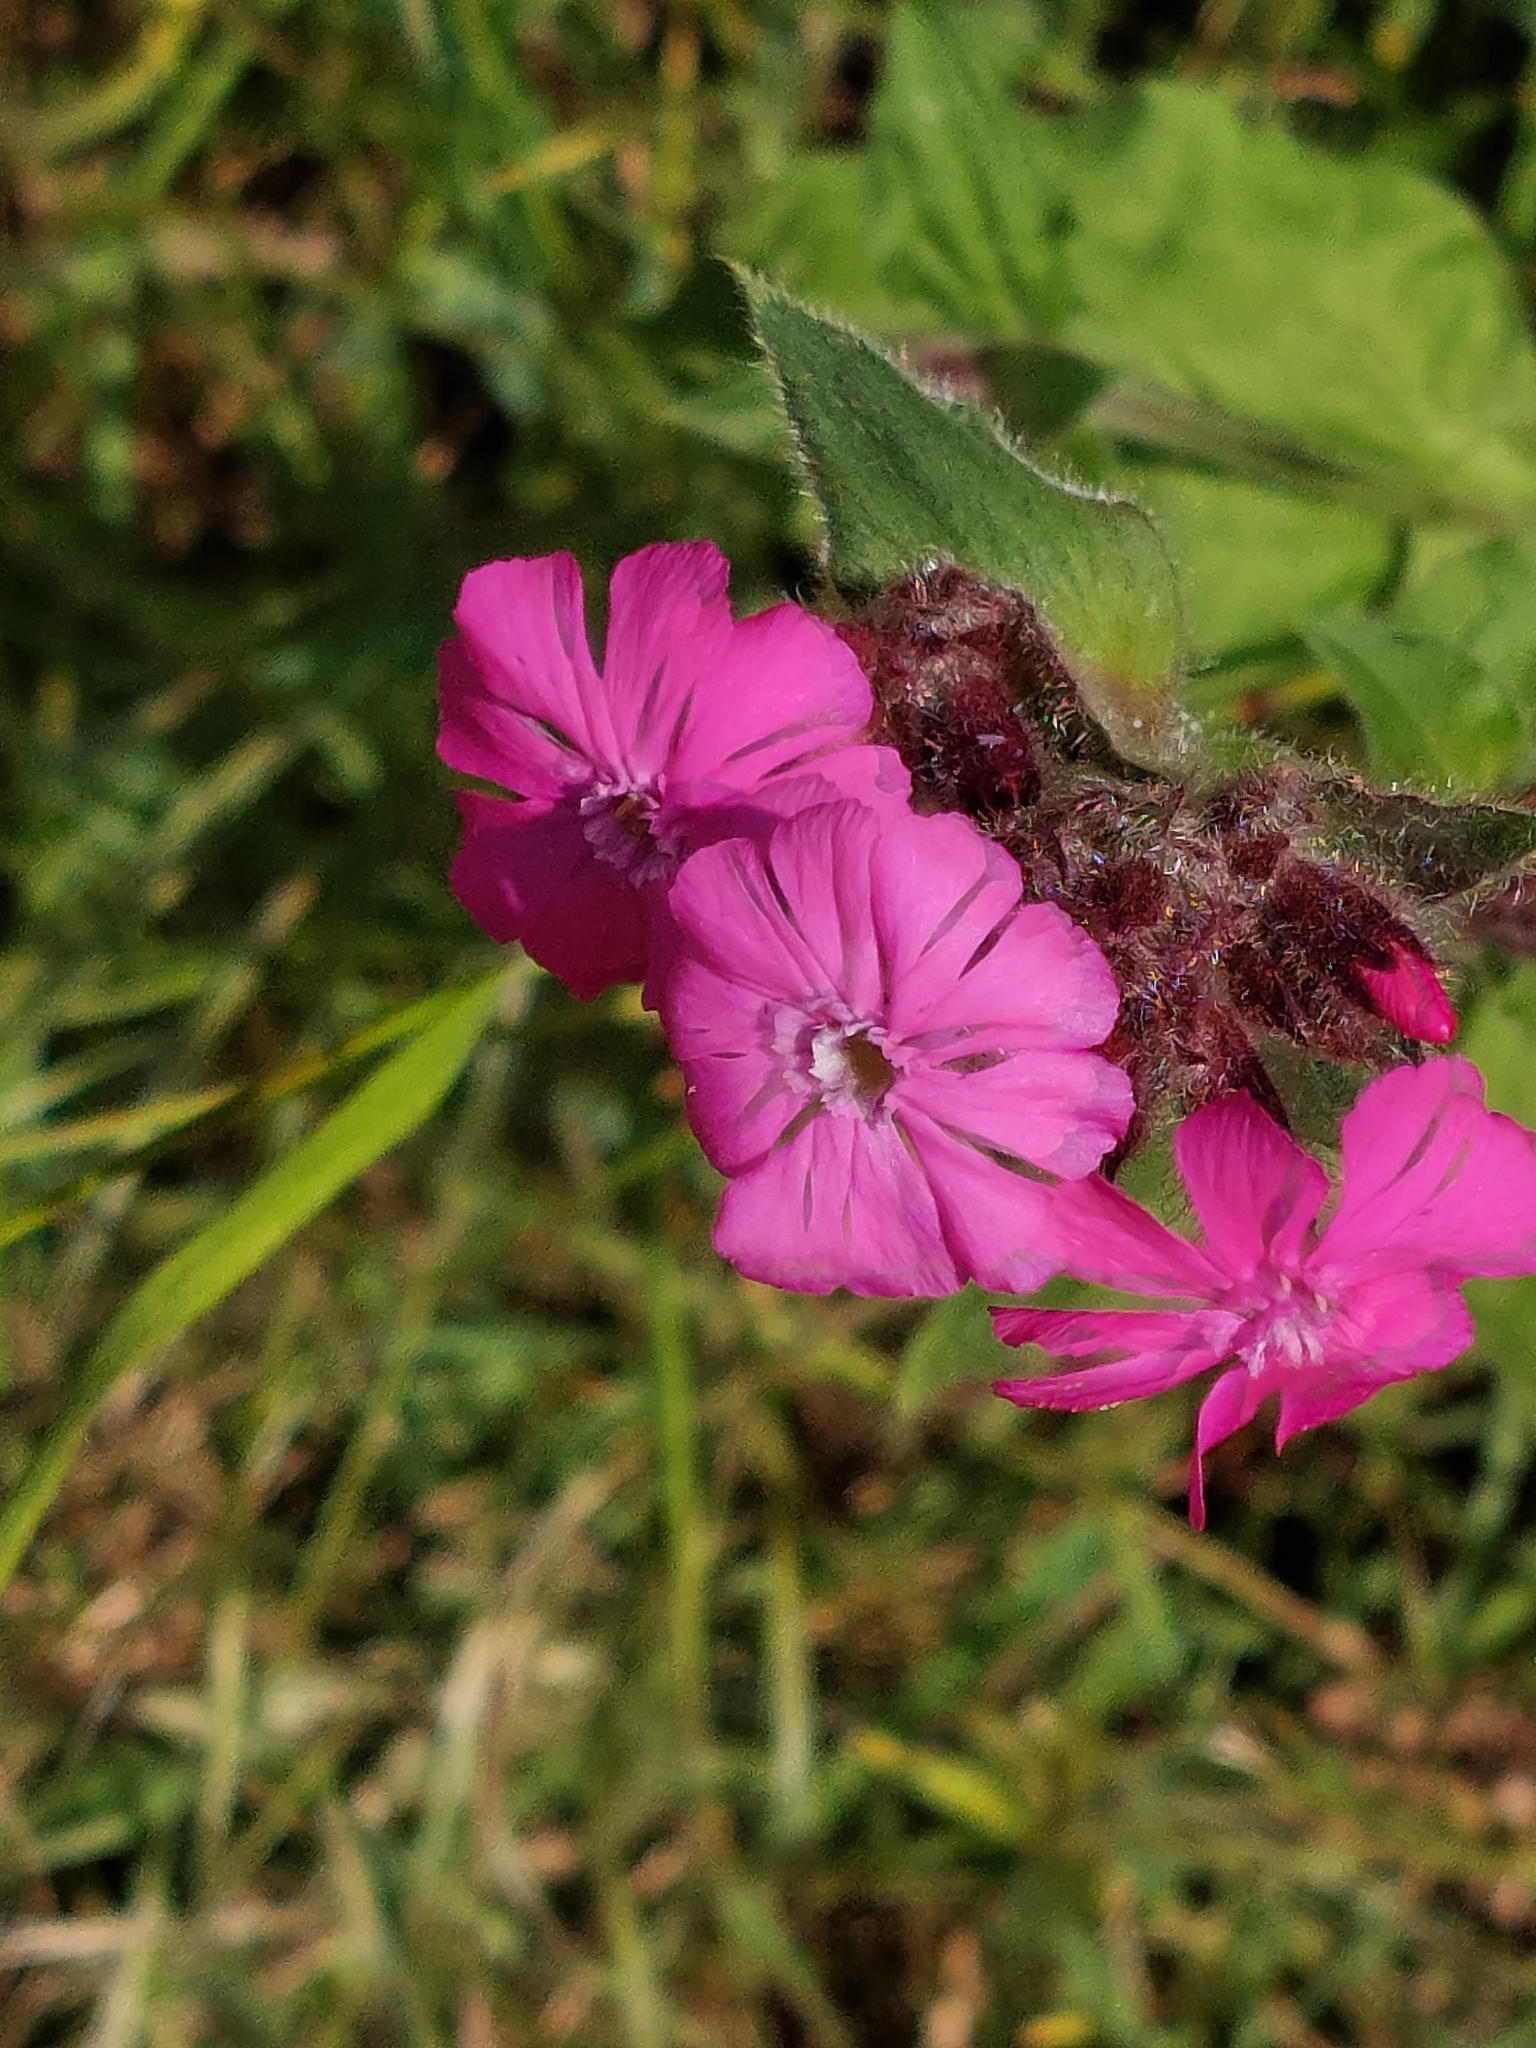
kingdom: Plantae
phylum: Tracheophyta
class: Magnoliopsida
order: Caryophyllales
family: Caryophyllaceae
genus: Silene
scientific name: Silene dioica
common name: Red campion
